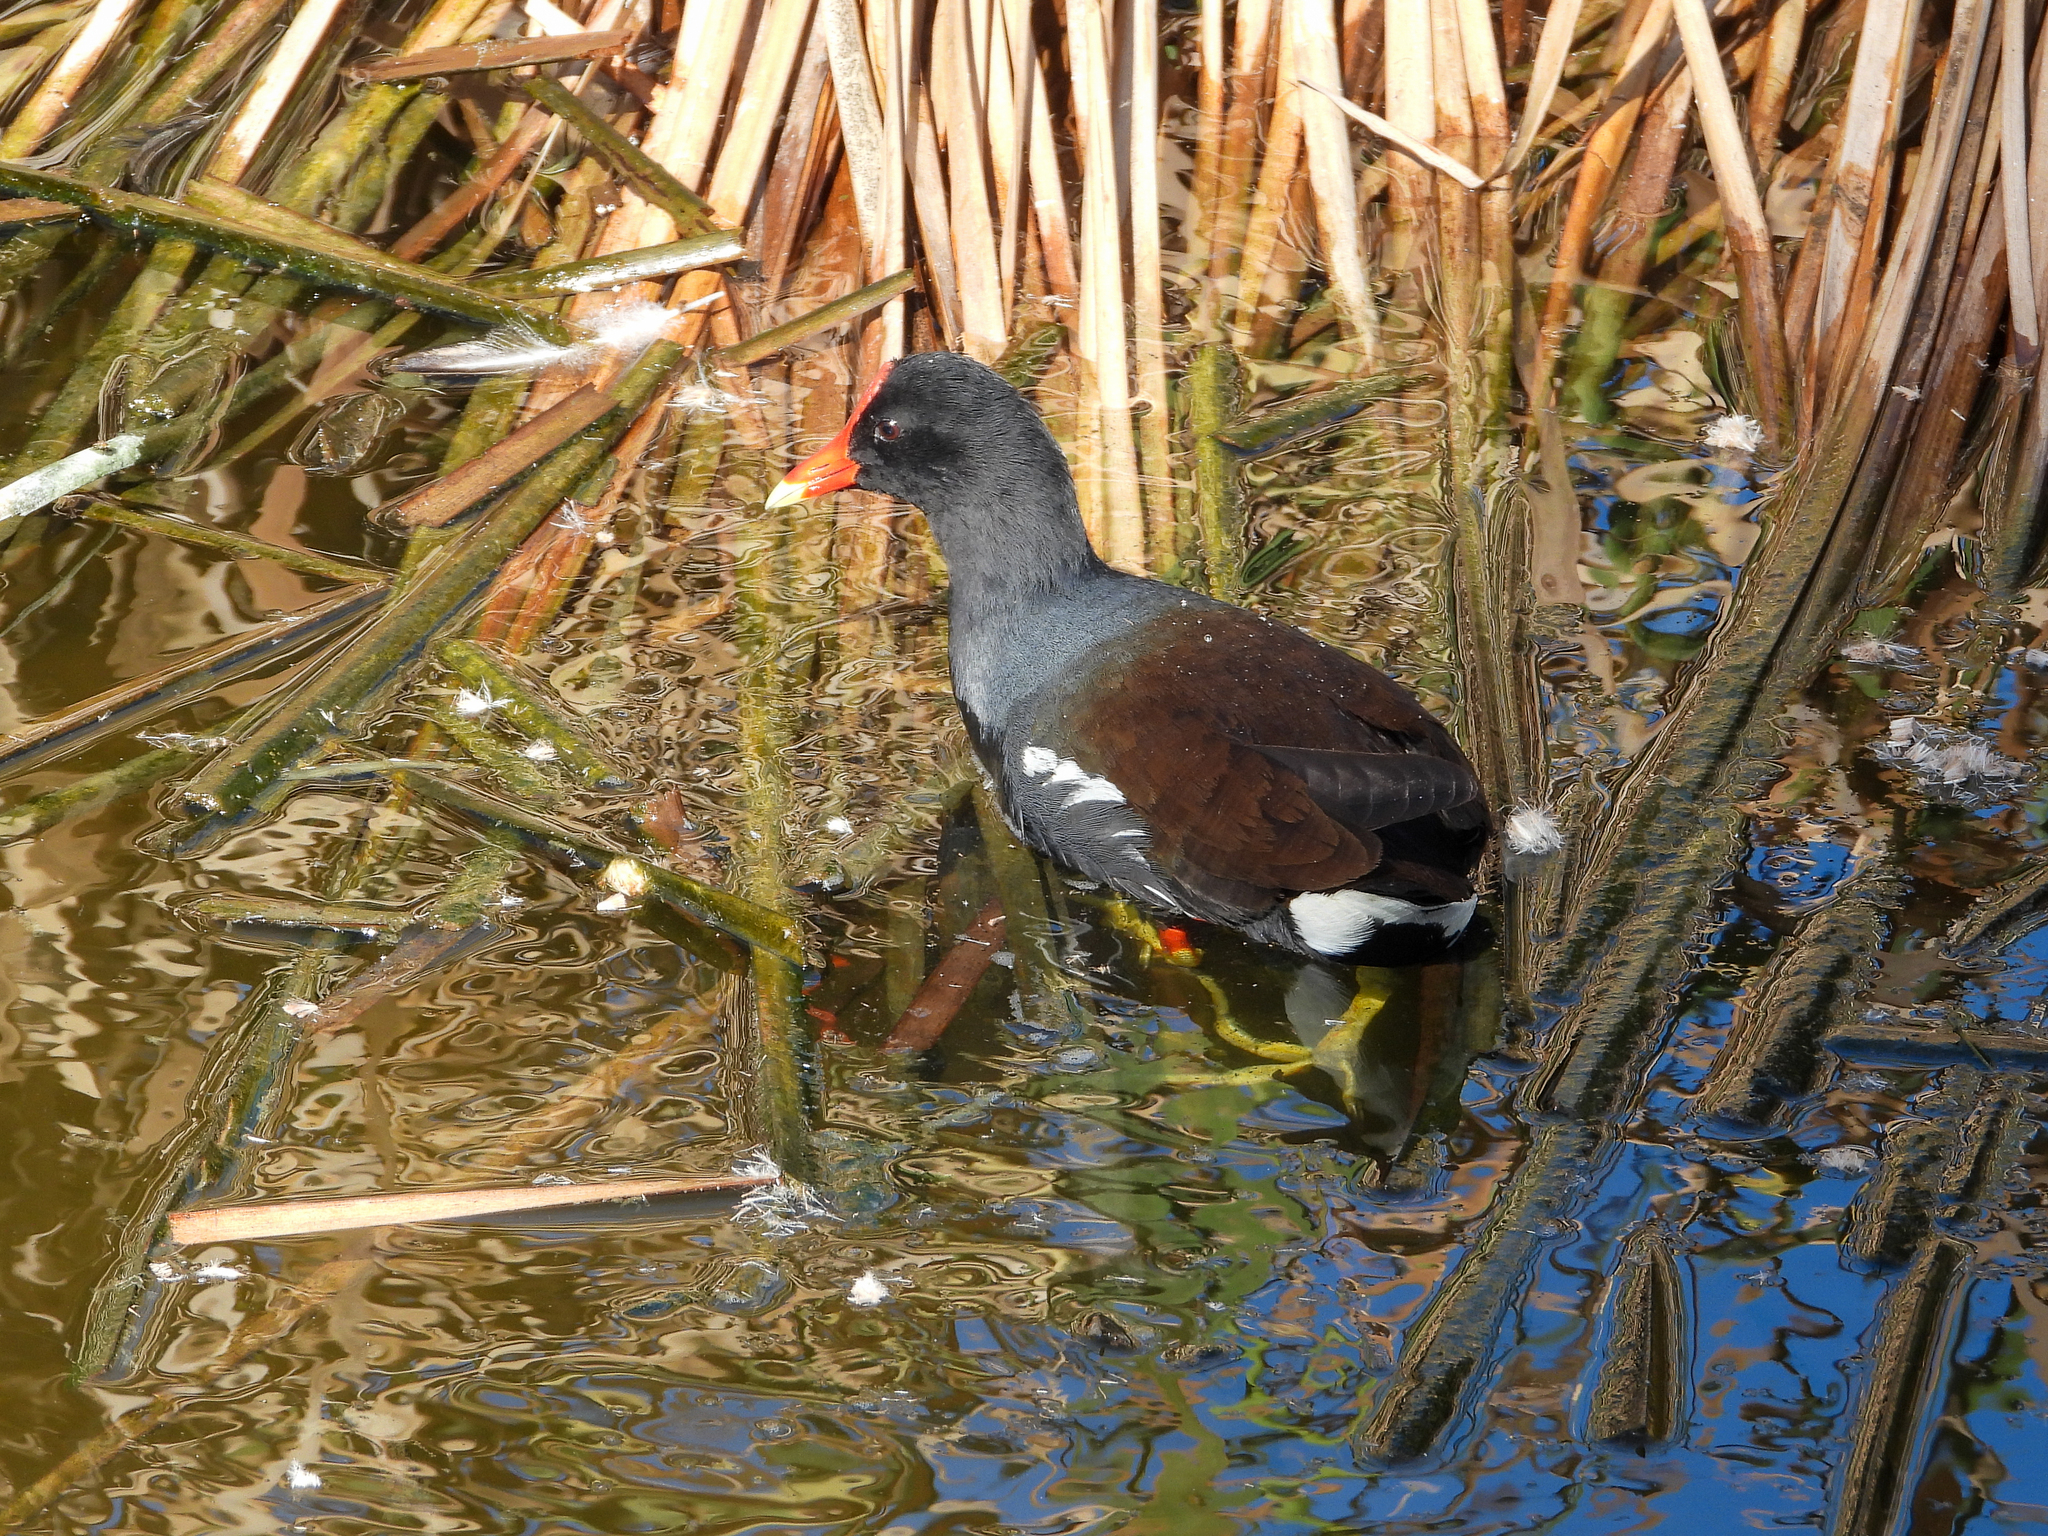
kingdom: Animalia
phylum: Chordata
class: Aves
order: Gruiformes
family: Rallidae
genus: Gallinula
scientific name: Gallinula chloropus
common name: Common moorhen
